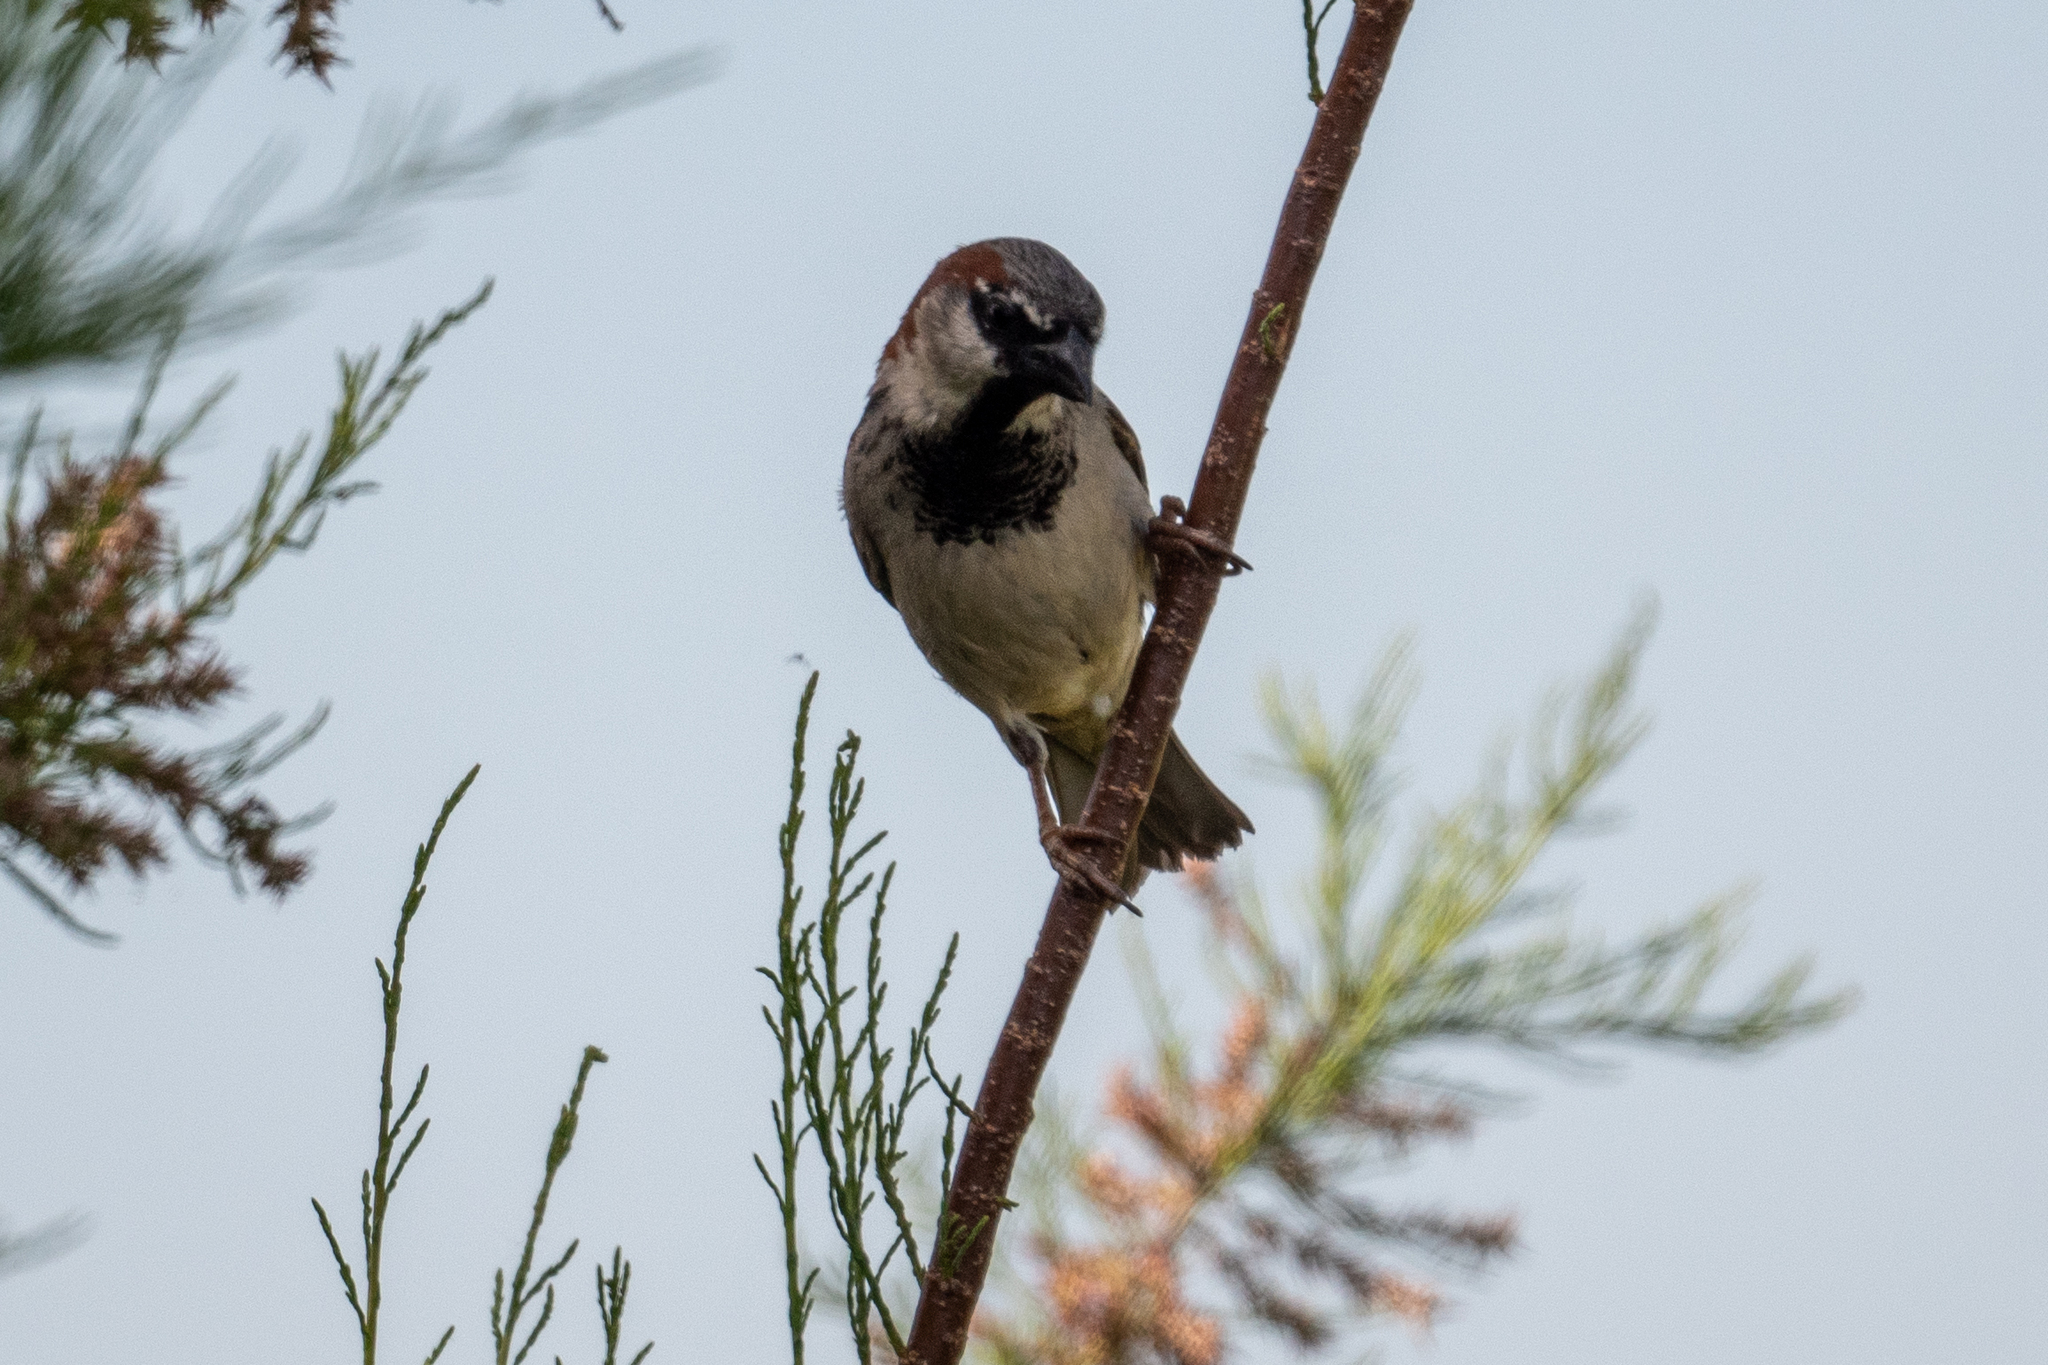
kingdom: Animalia
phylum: Chordata
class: Aves
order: Passeriformes
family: Passeridae
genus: Passer
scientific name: Passer domesticus
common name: House sparrow
